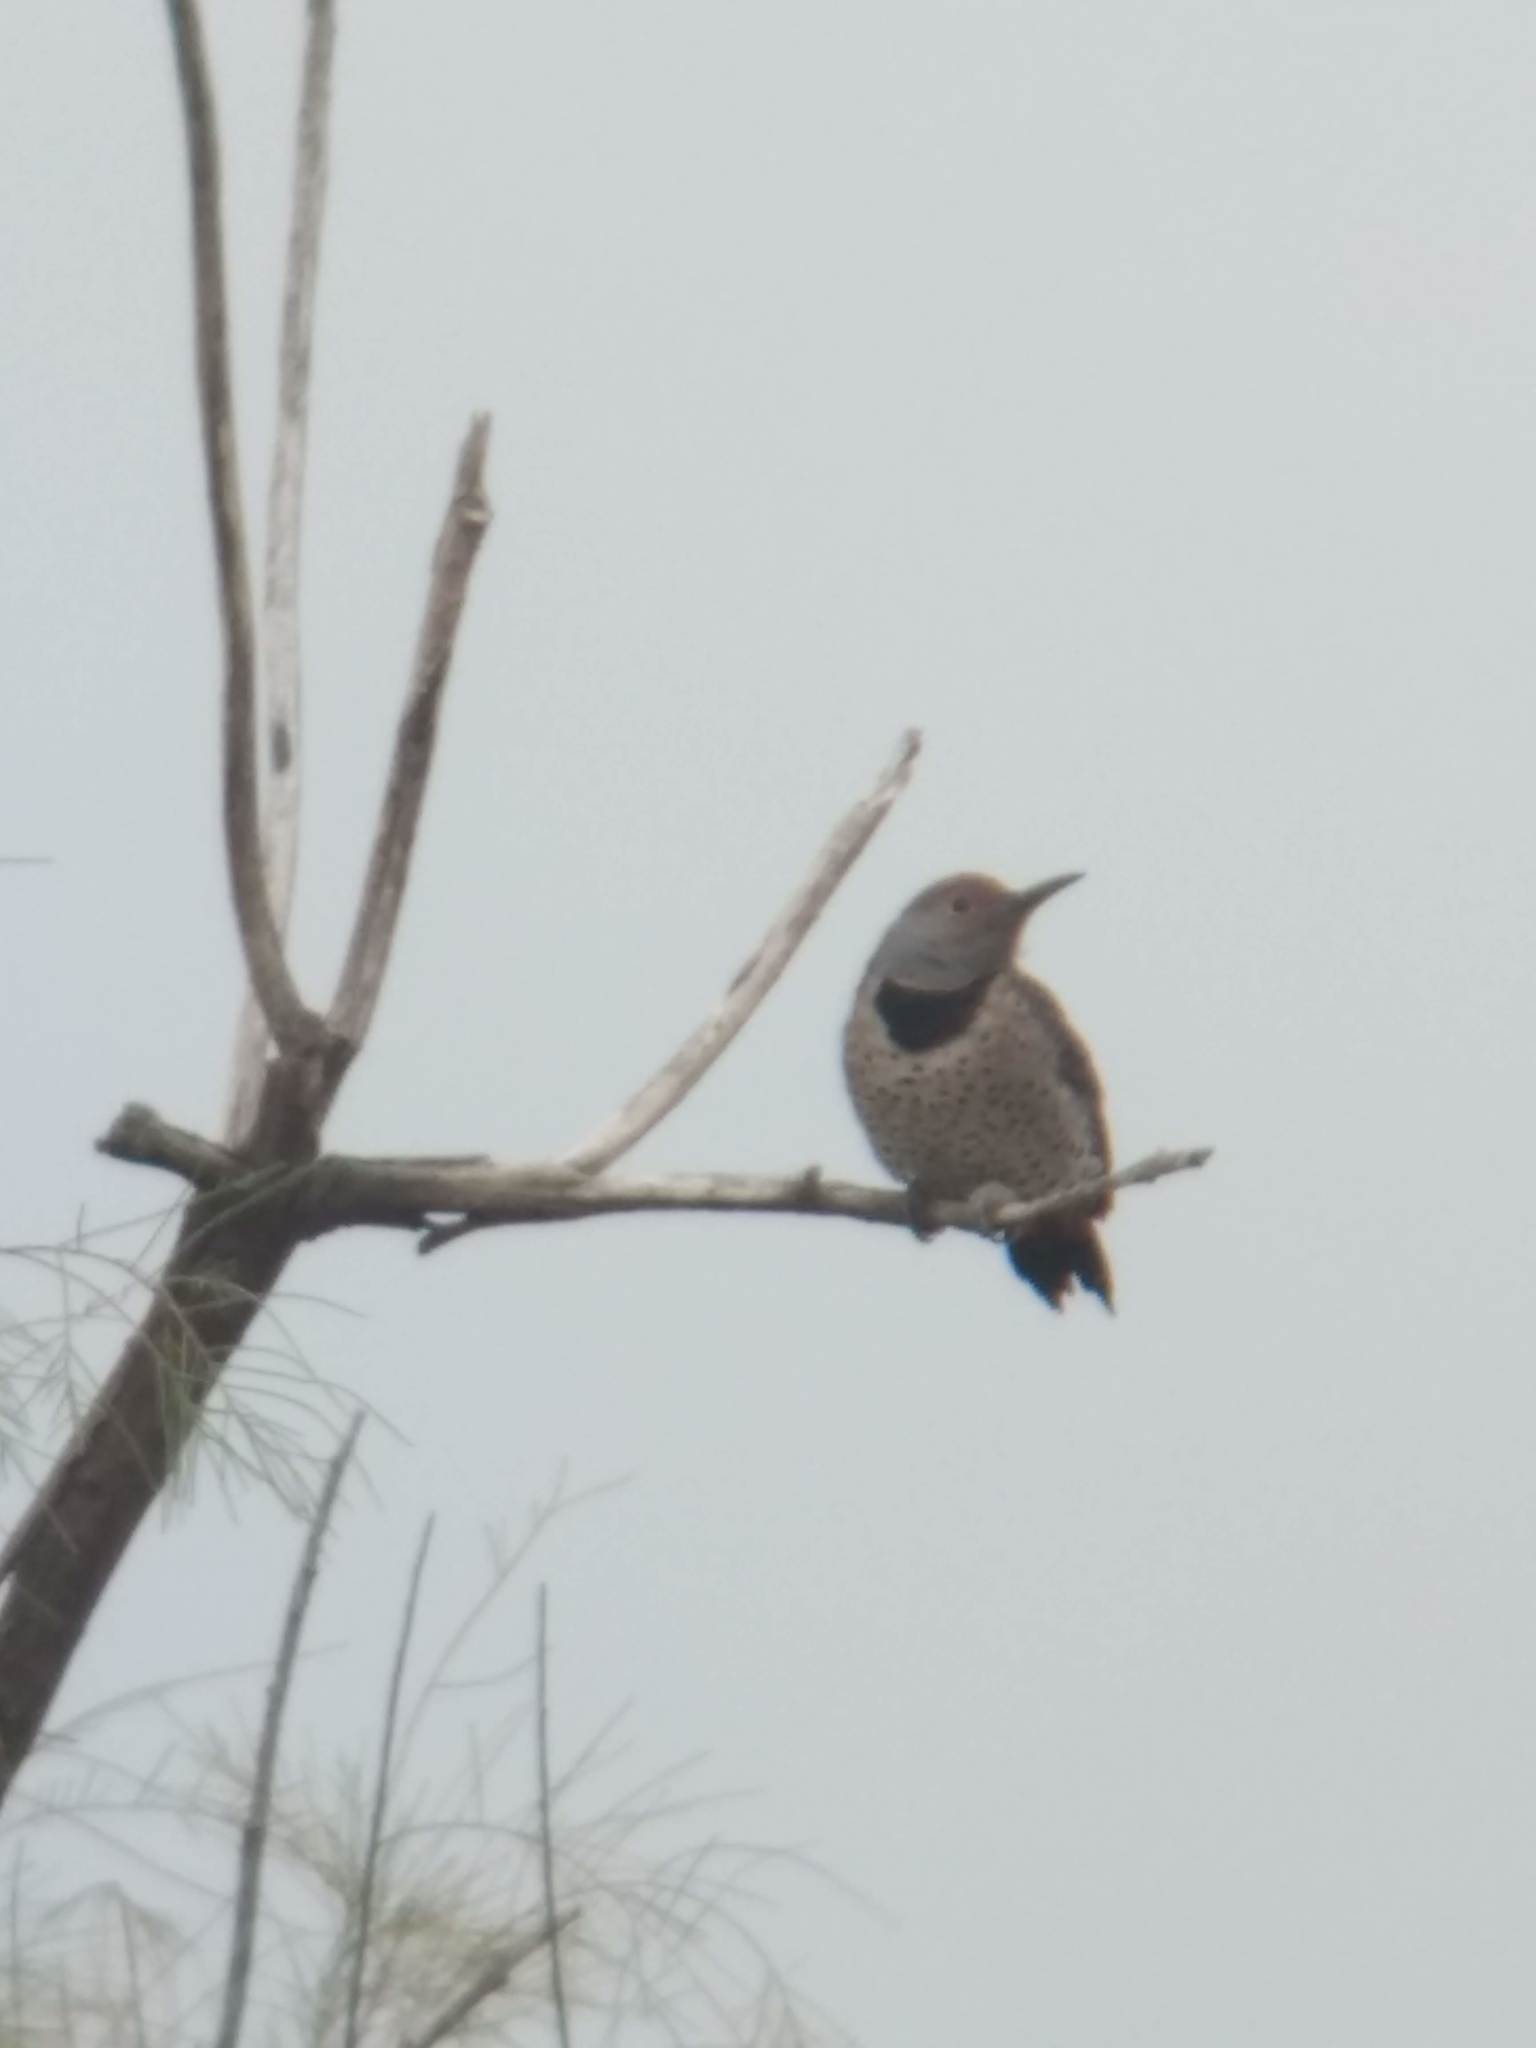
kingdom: Animalia
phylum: Chordata
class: Aves
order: Piciformes
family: Picidae
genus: Colaptes
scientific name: Colaptes auratus
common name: Northern flicker
